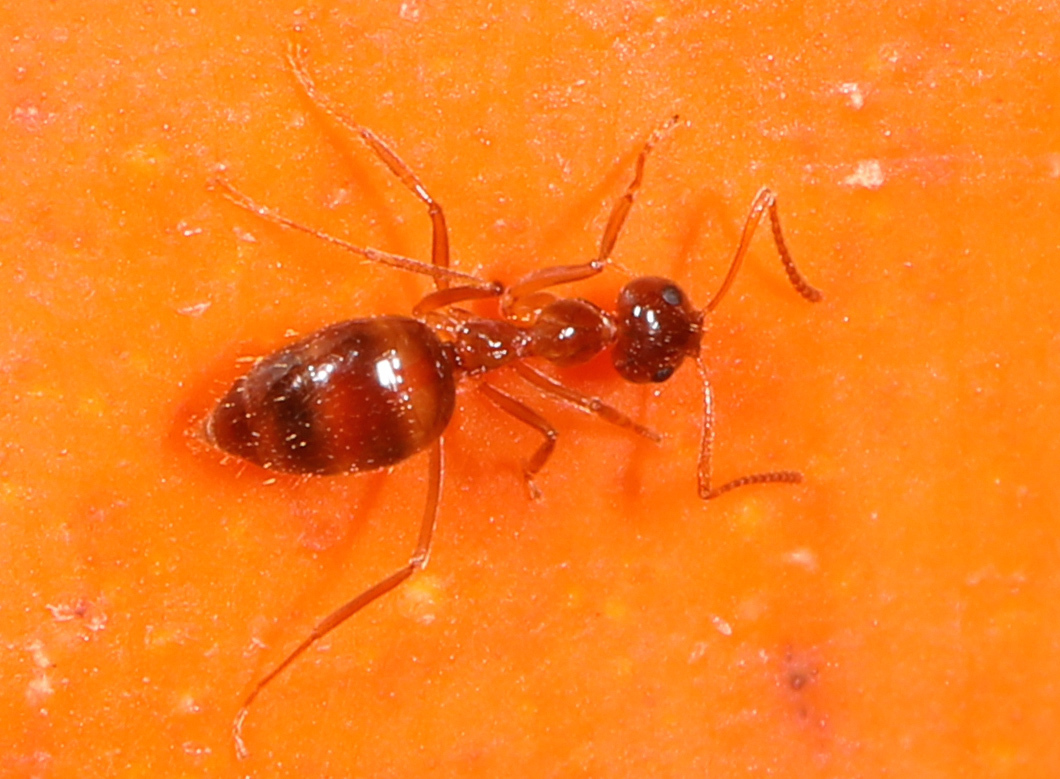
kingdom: Animalia
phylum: Arthropoda
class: Insecta
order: Hymenoptera
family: Formicidae
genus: Prenolepis
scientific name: Prenolepis imparis
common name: Small honey ant
